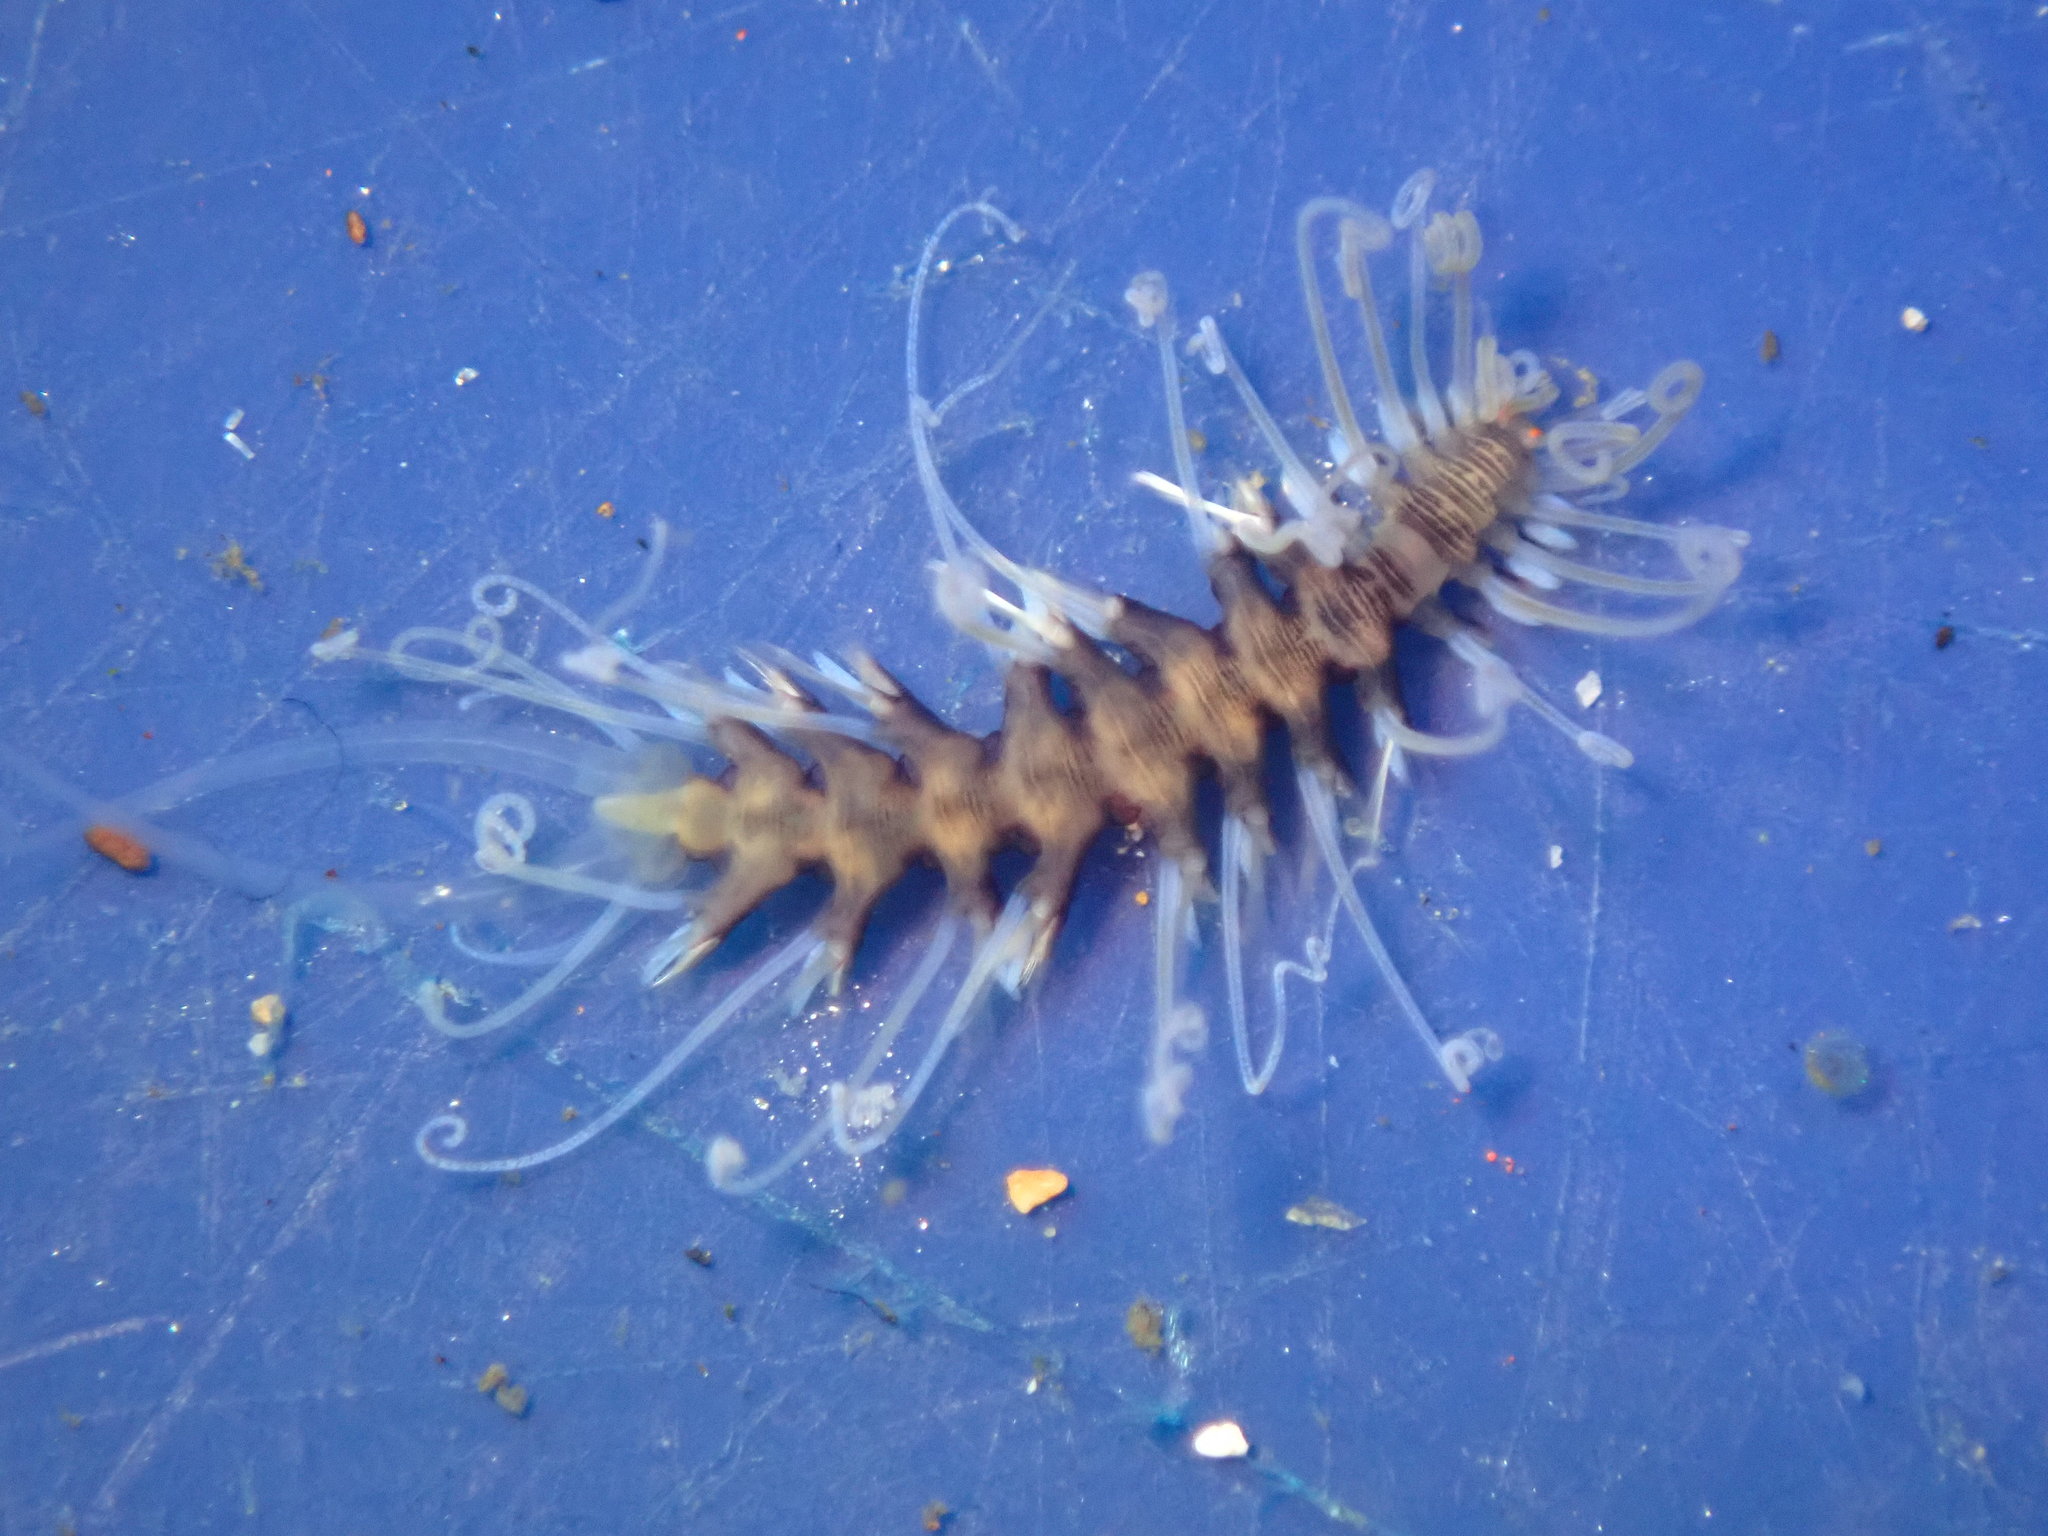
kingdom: Animalia
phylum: Annelida
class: Polychaeta
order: Phyllodocida
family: Syllidae
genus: Amblyosyllis
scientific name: Amblyosyllis hectori
